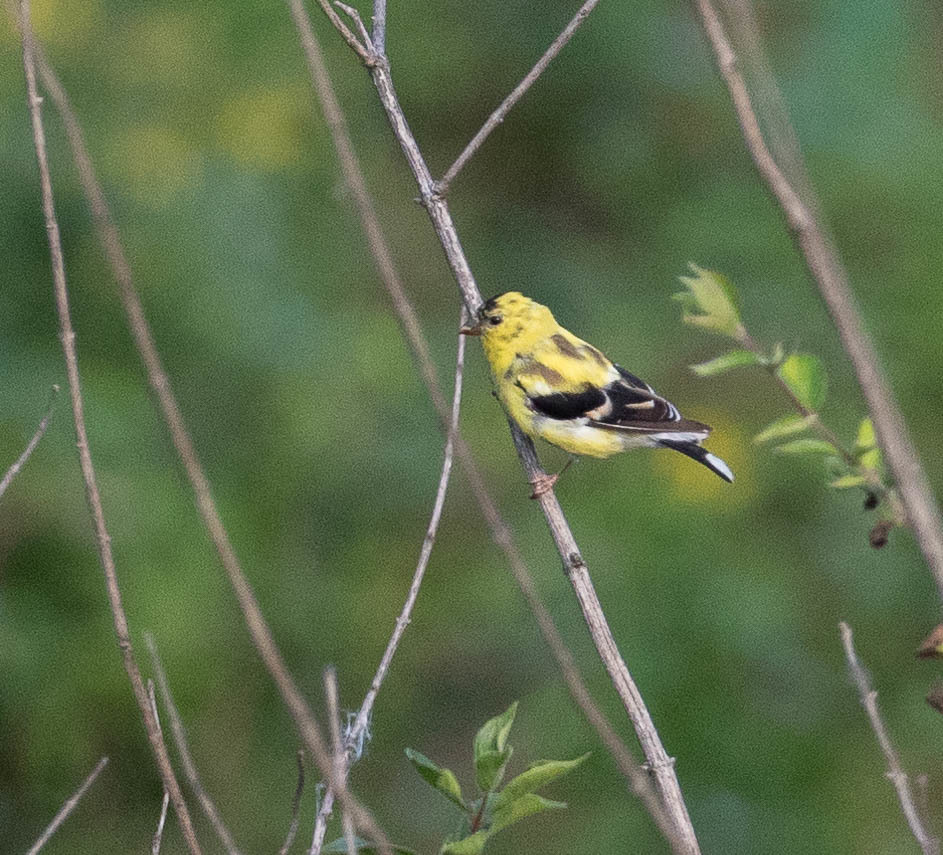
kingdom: Animalia
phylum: Chordata
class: Aves
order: Passeriformes
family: Fringillidae
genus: Spinus
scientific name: Spinus tristis
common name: American goldfinch
